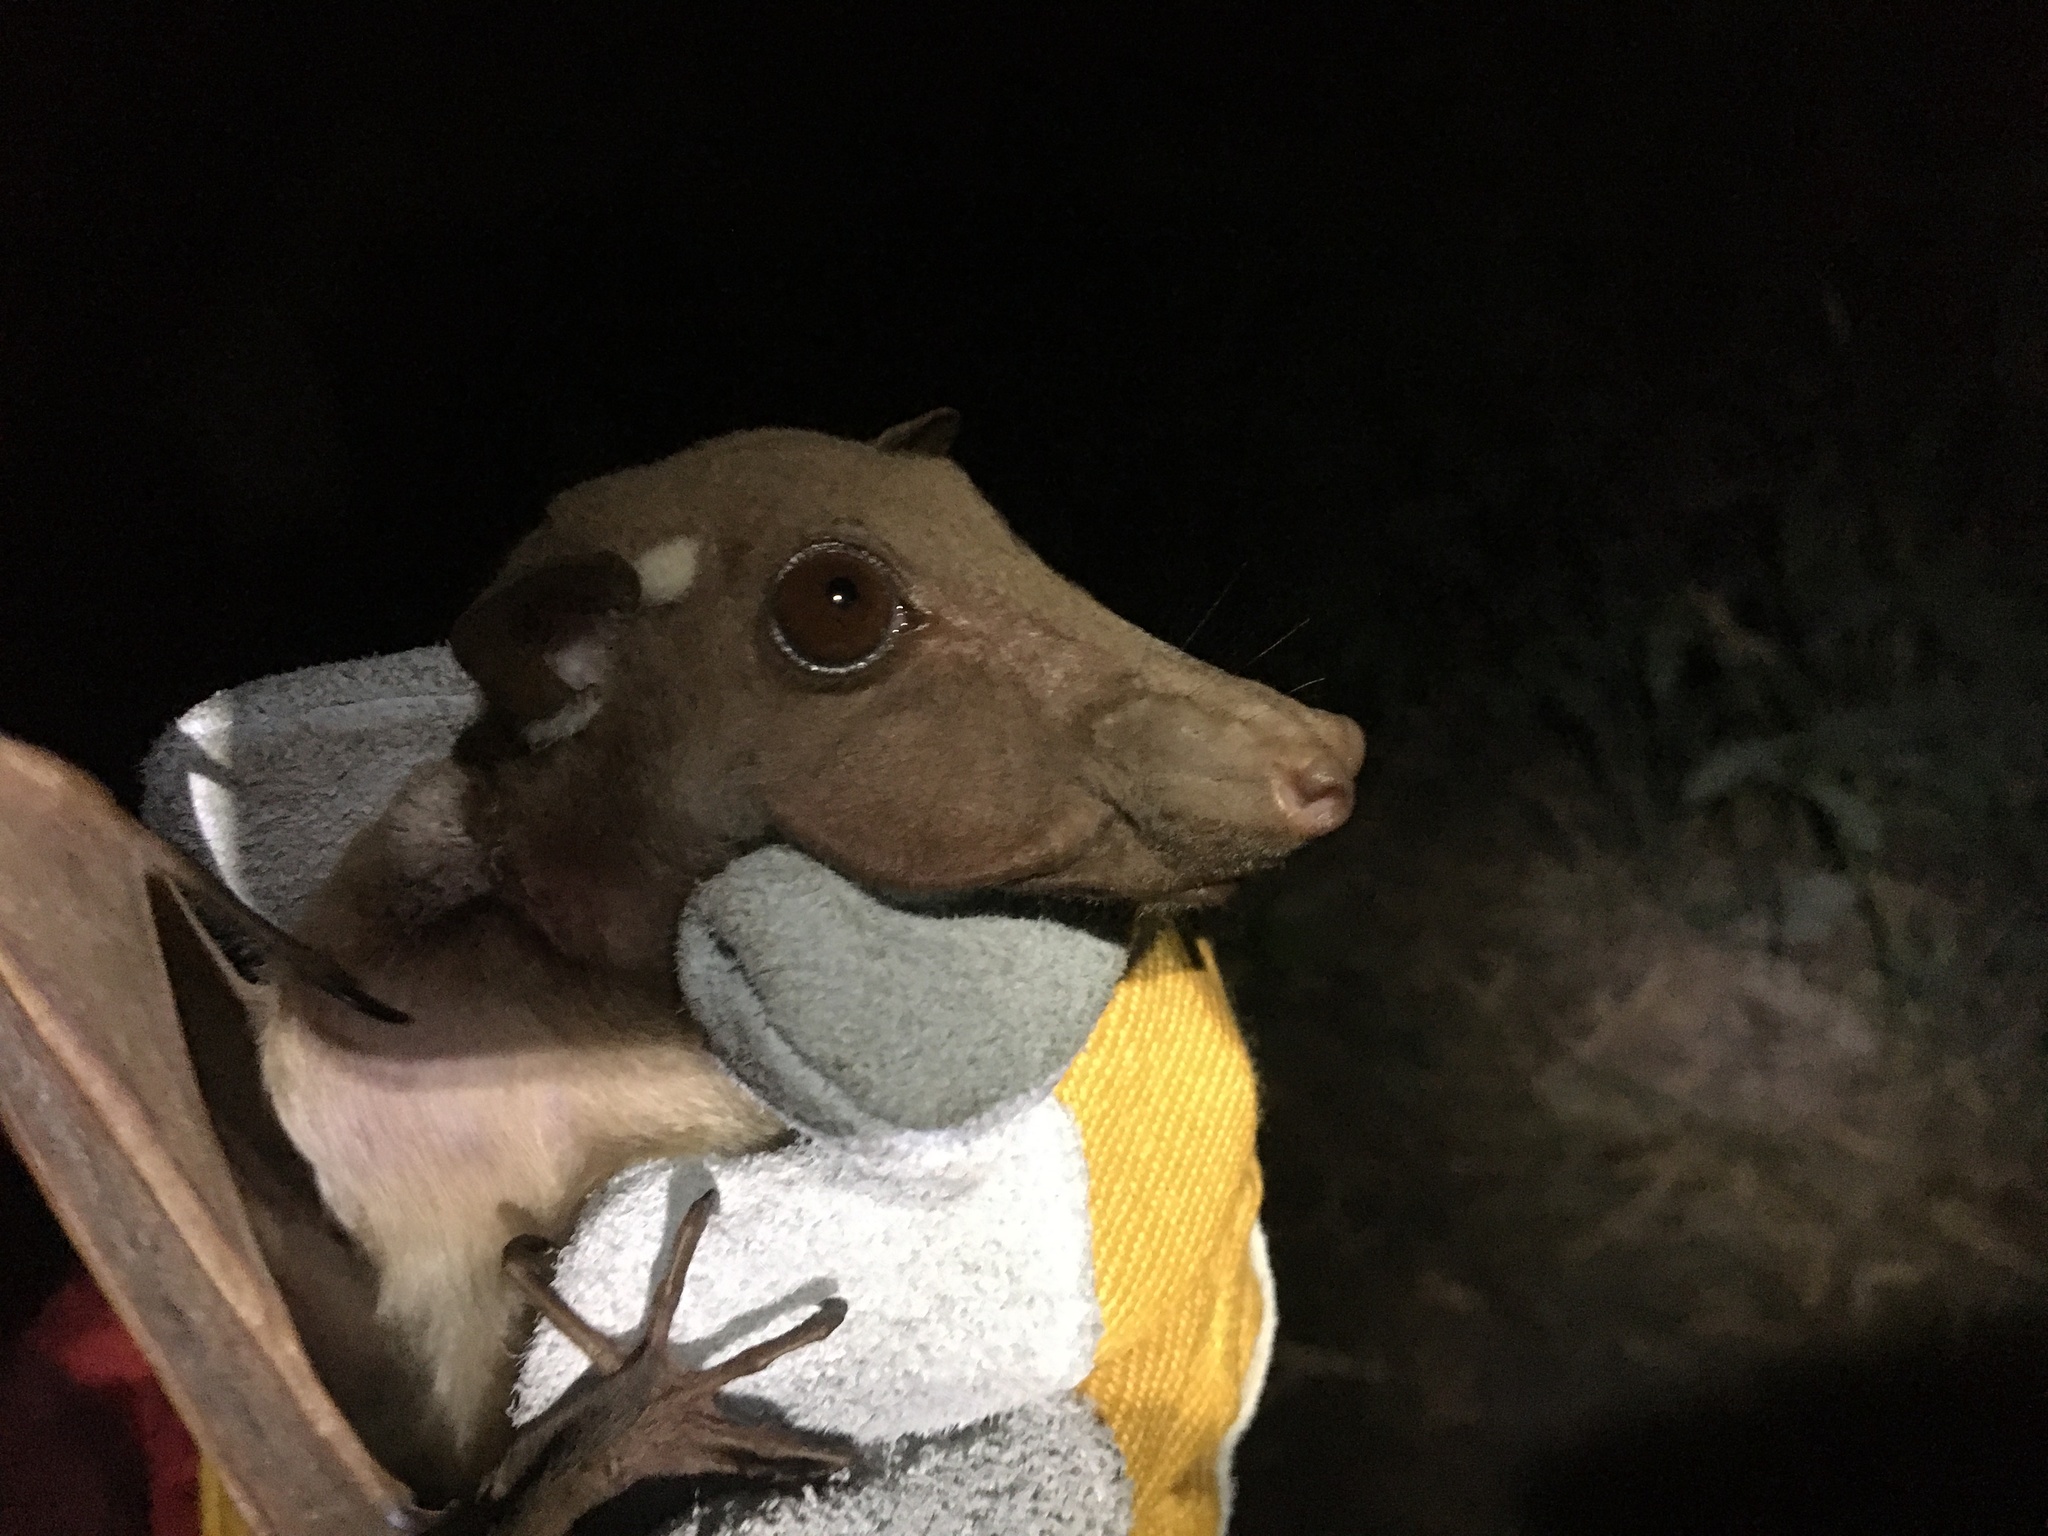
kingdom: Animalia
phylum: Chordata
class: Mammalia
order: Chiroptera
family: Pteropodidae
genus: Epomophorus
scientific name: Epomophorus gambianus
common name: Gambian epauletted fruit bat
